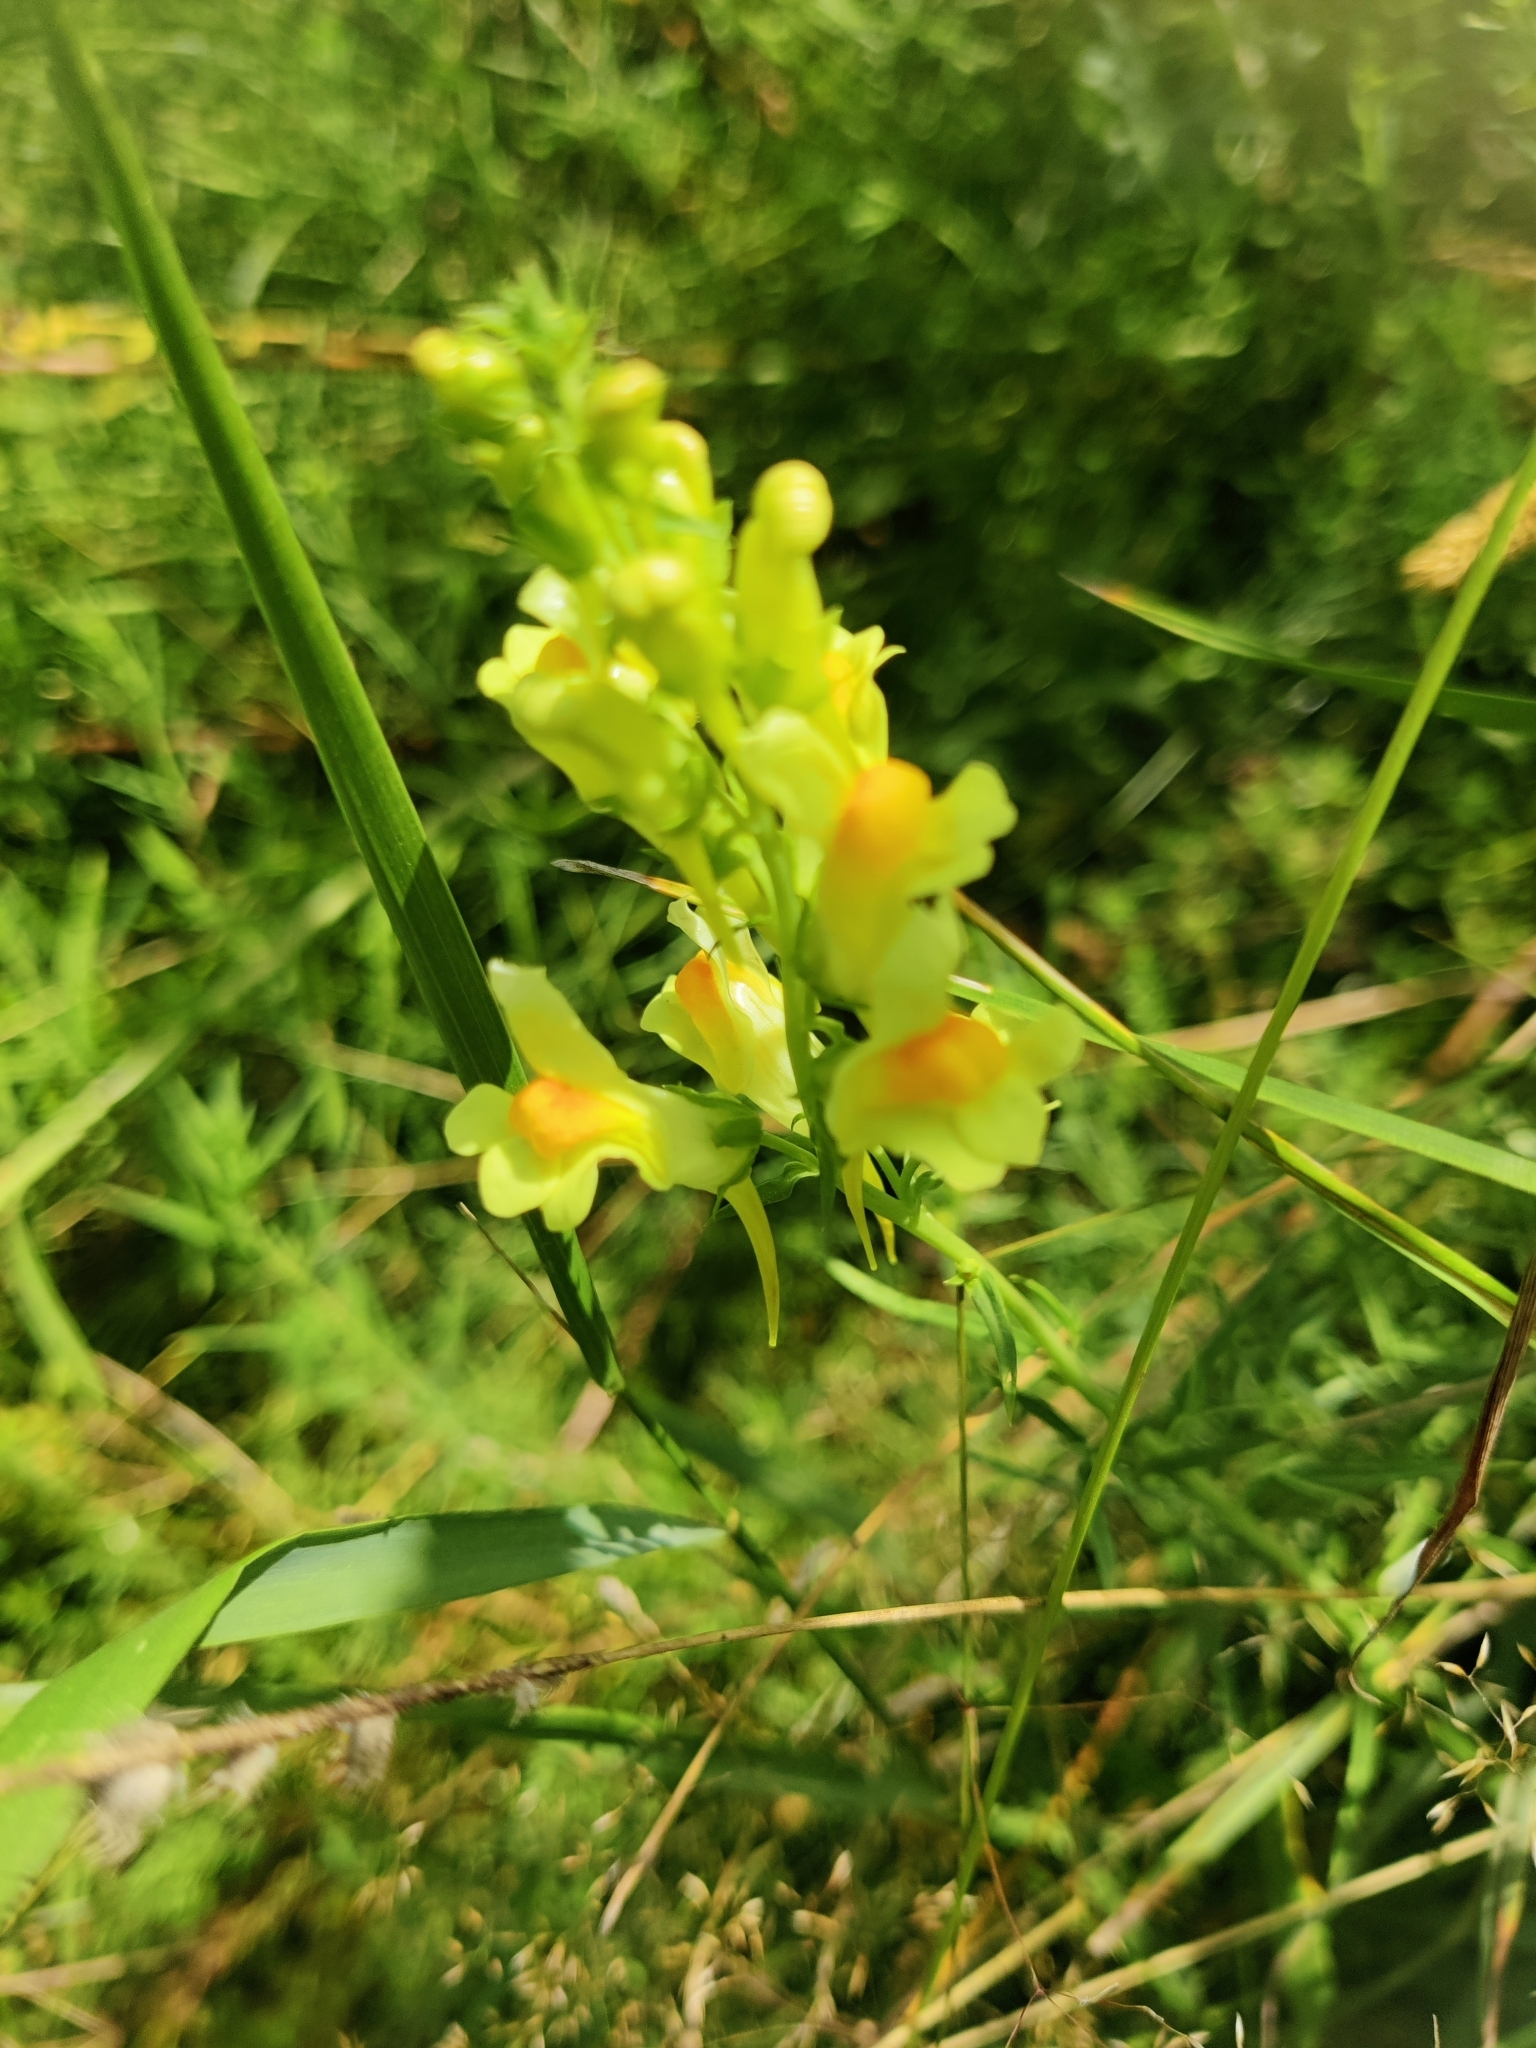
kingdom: Plantae
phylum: Tracheophyta
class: Magnoliopsida
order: Lamiales
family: Plantaginaceae
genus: Linaria
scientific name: Linaria vulgaris
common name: Butter and eggs
